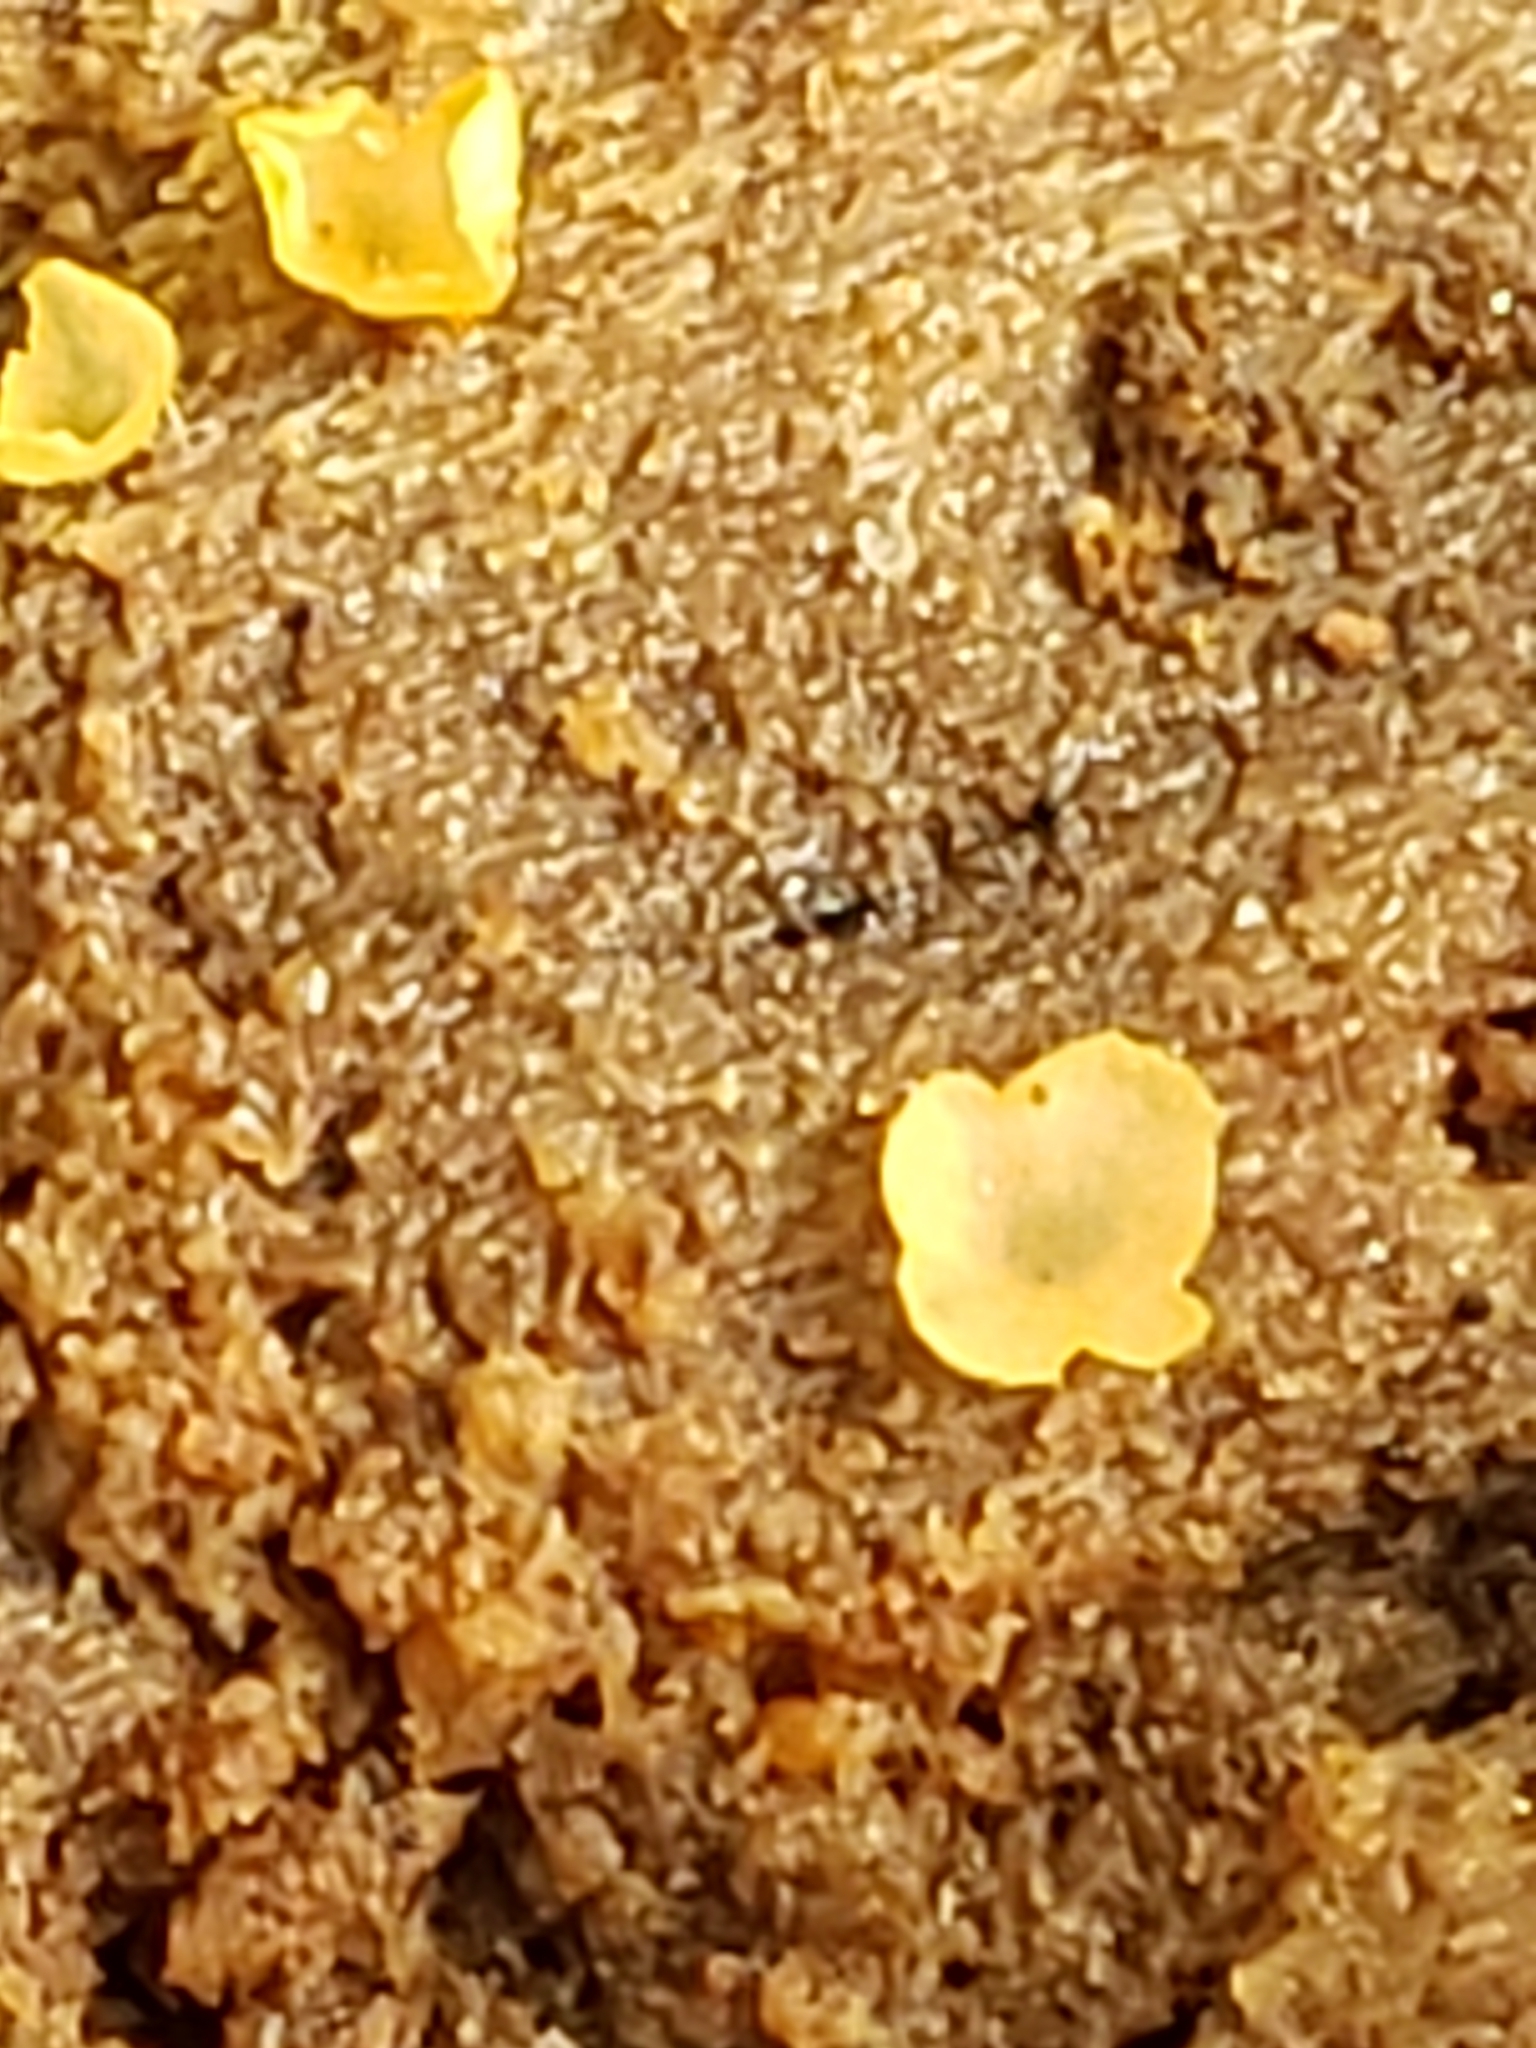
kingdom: Fungi
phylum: Ascomycota
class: Orbiliomycetes
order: Orbiliales
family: Orbiliaceae
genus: Orbilia
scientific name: Orbilia
